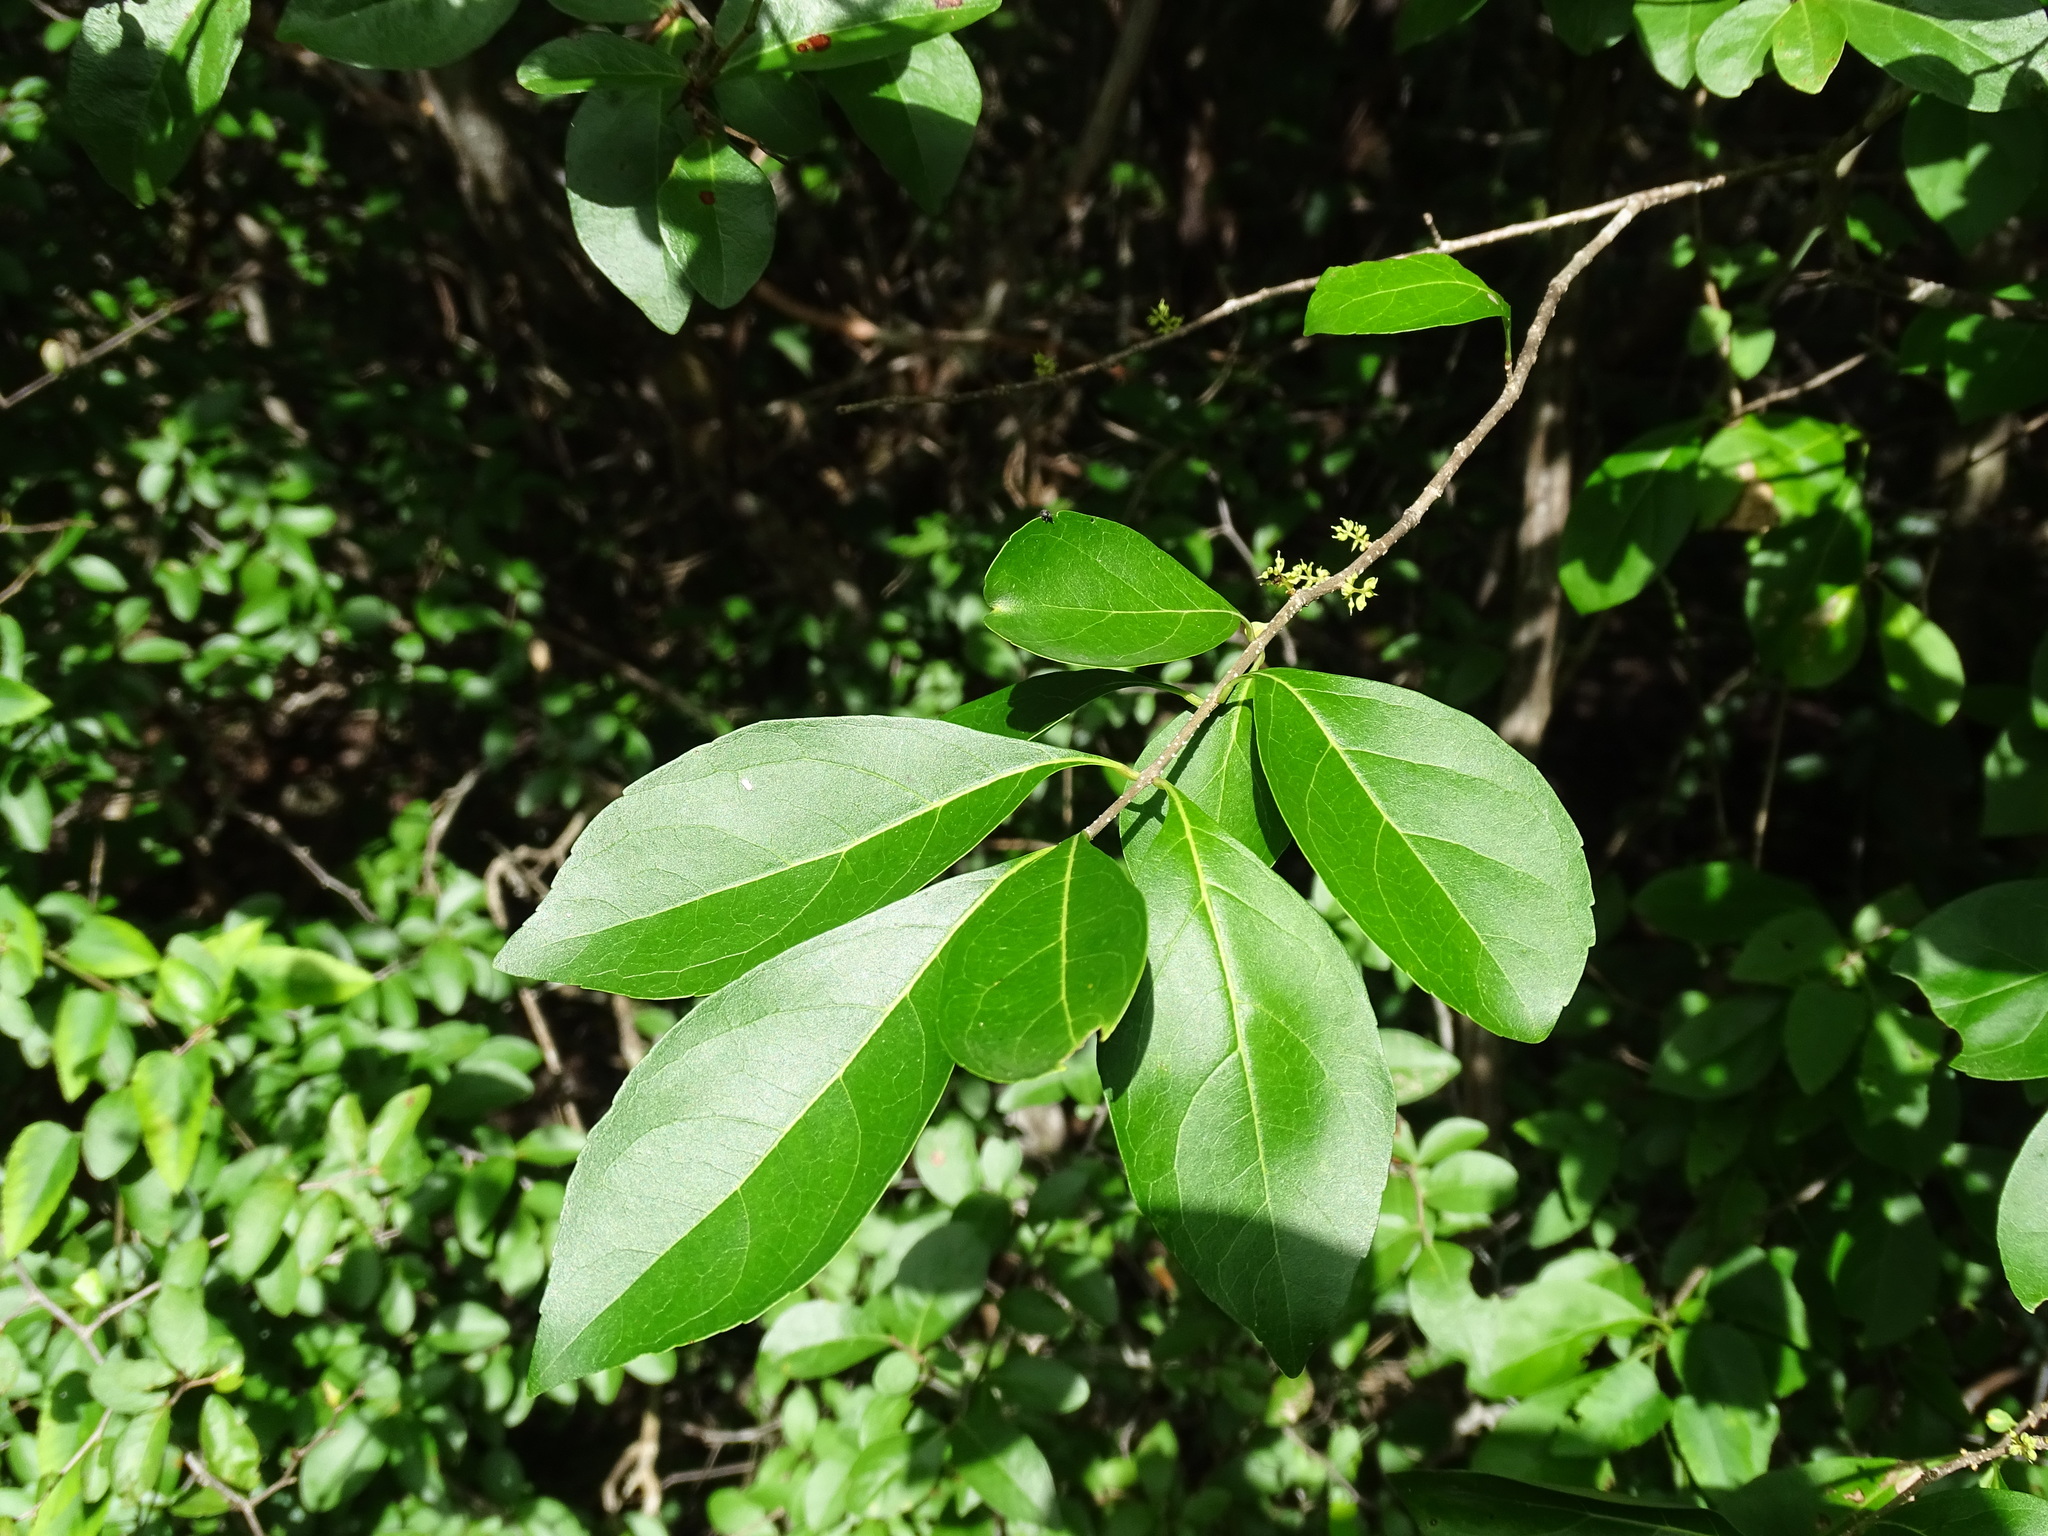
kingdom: Plantae
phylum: Tracheophyta
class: Magnoliopsida
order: Lamiales
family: Oleaceae
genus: Forestiera
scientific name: Forestiera rhamnifolia
